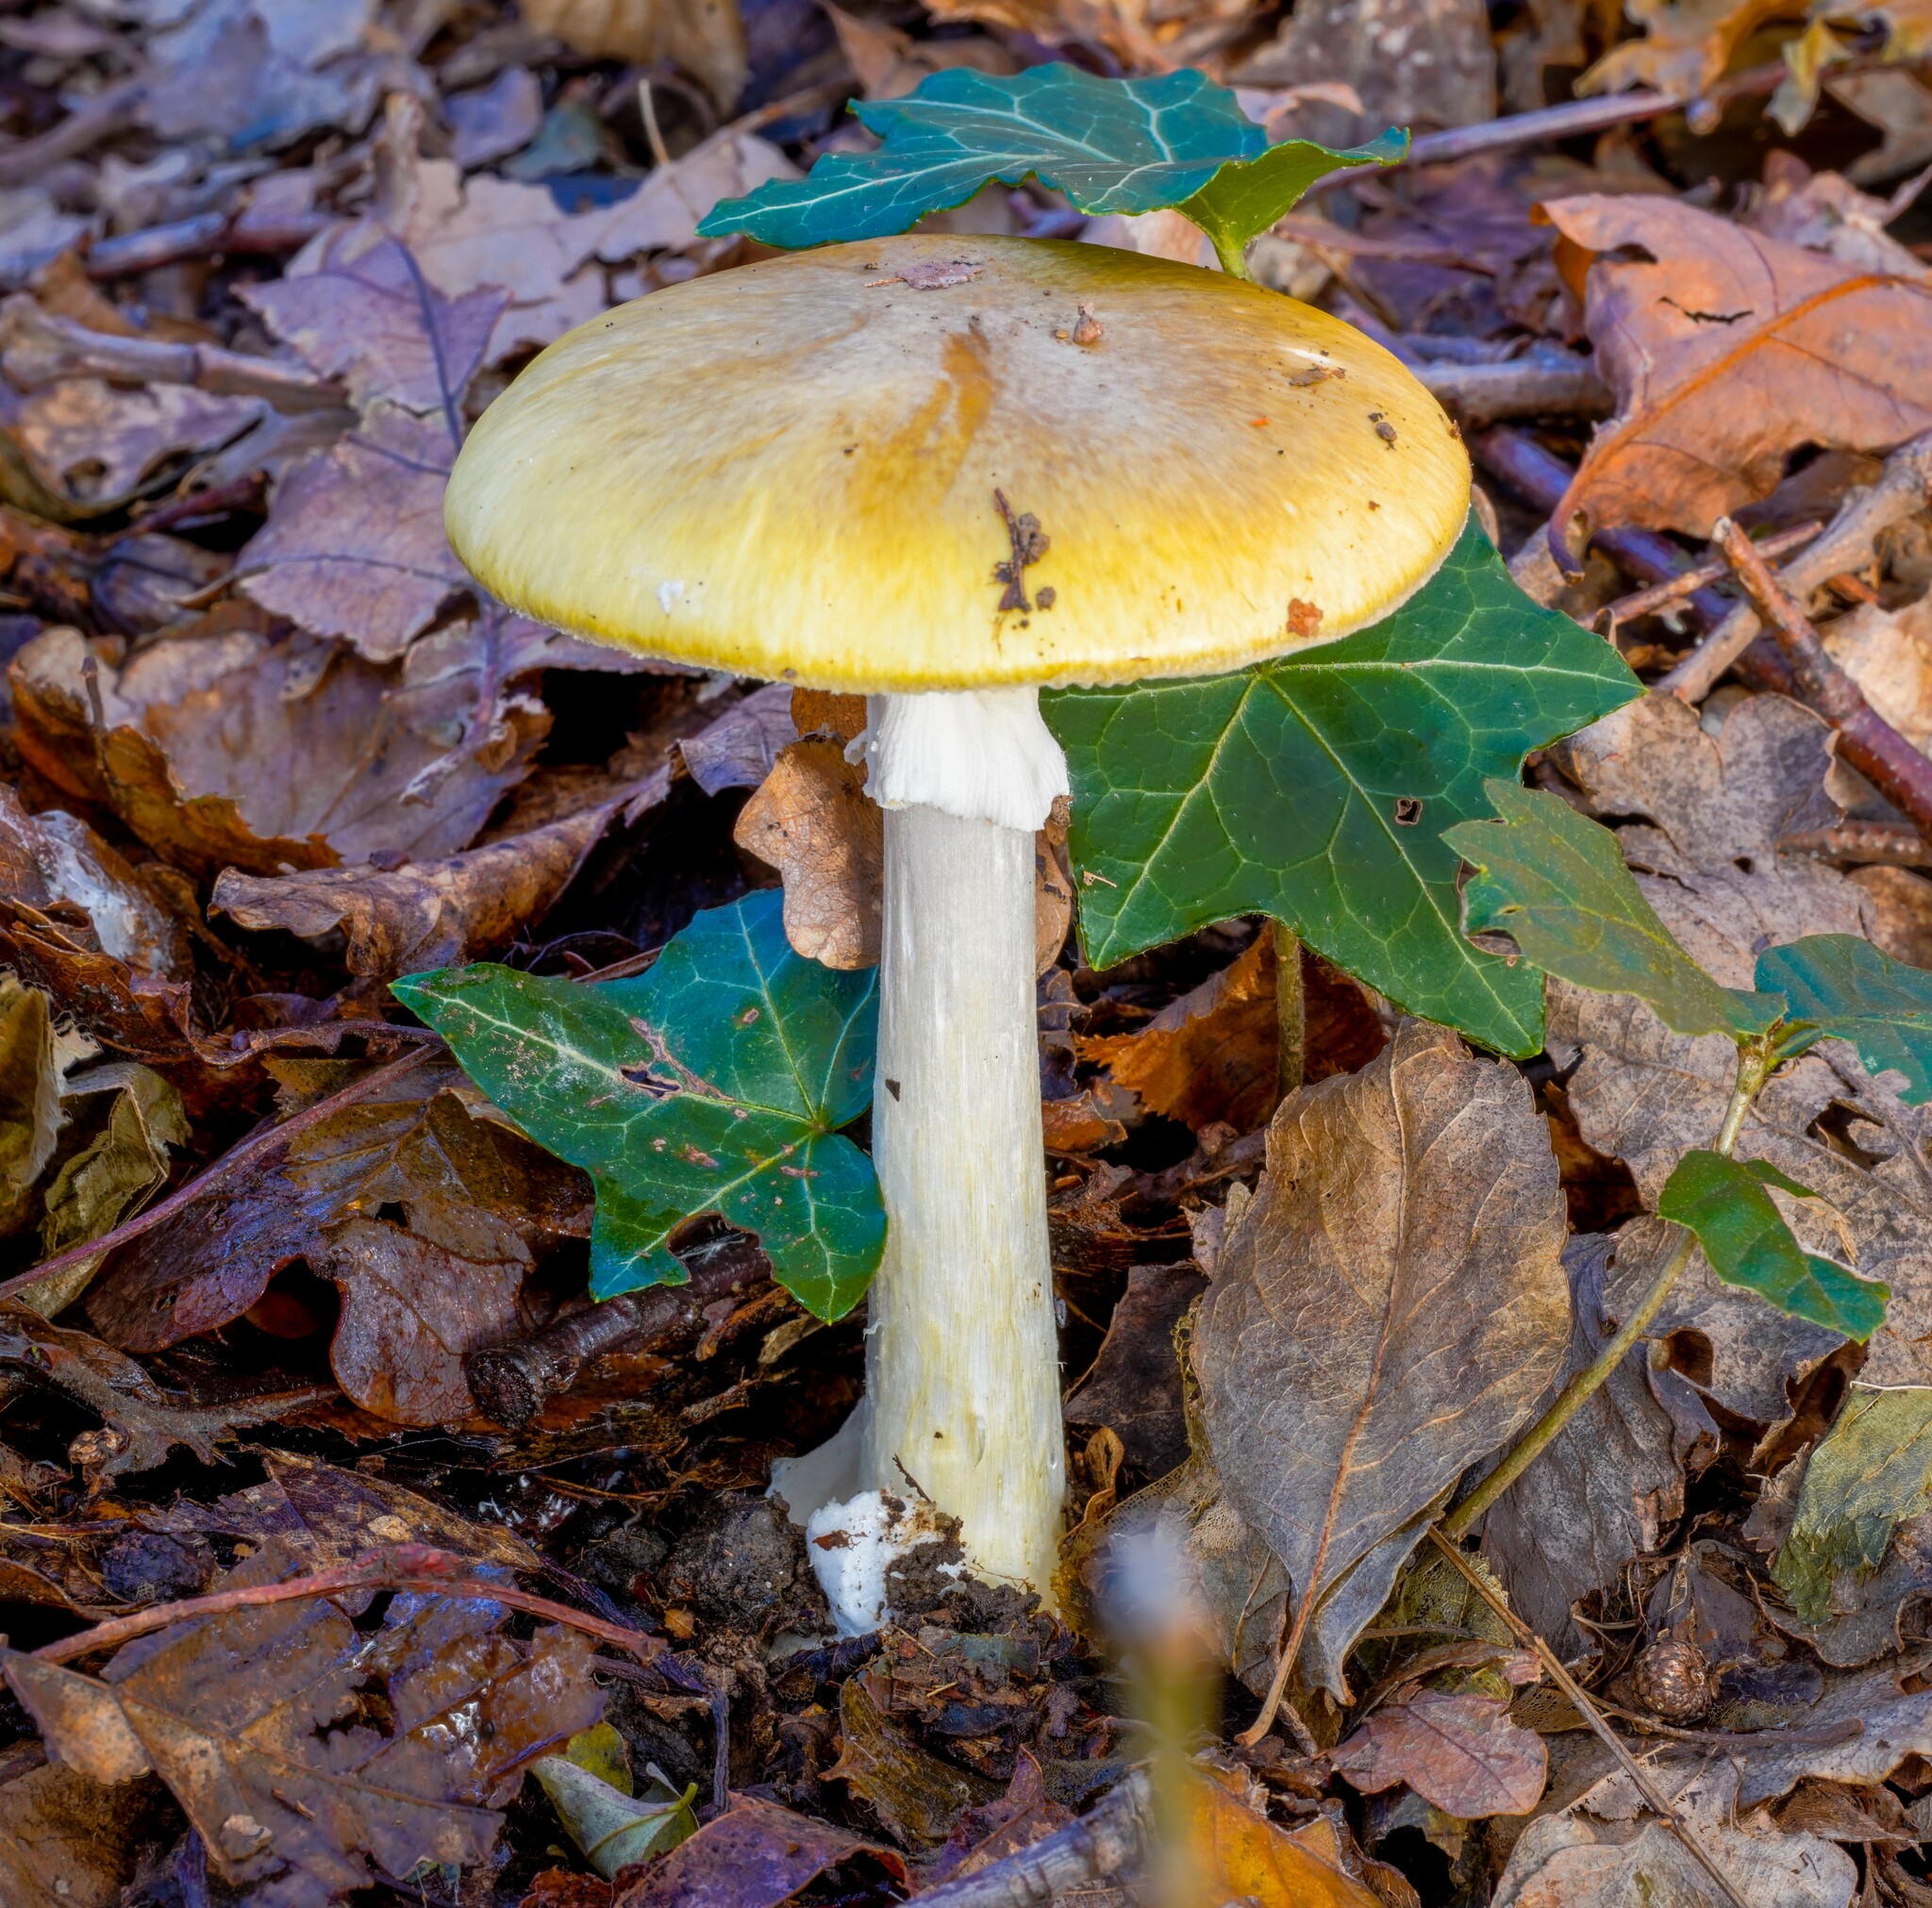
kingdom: Fungi
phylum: Basidiomycota
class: Agaricomycetes
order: Agaricales
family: Amanitaceae
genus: Amanita
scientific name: Amanita phalloides
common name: Death cap
